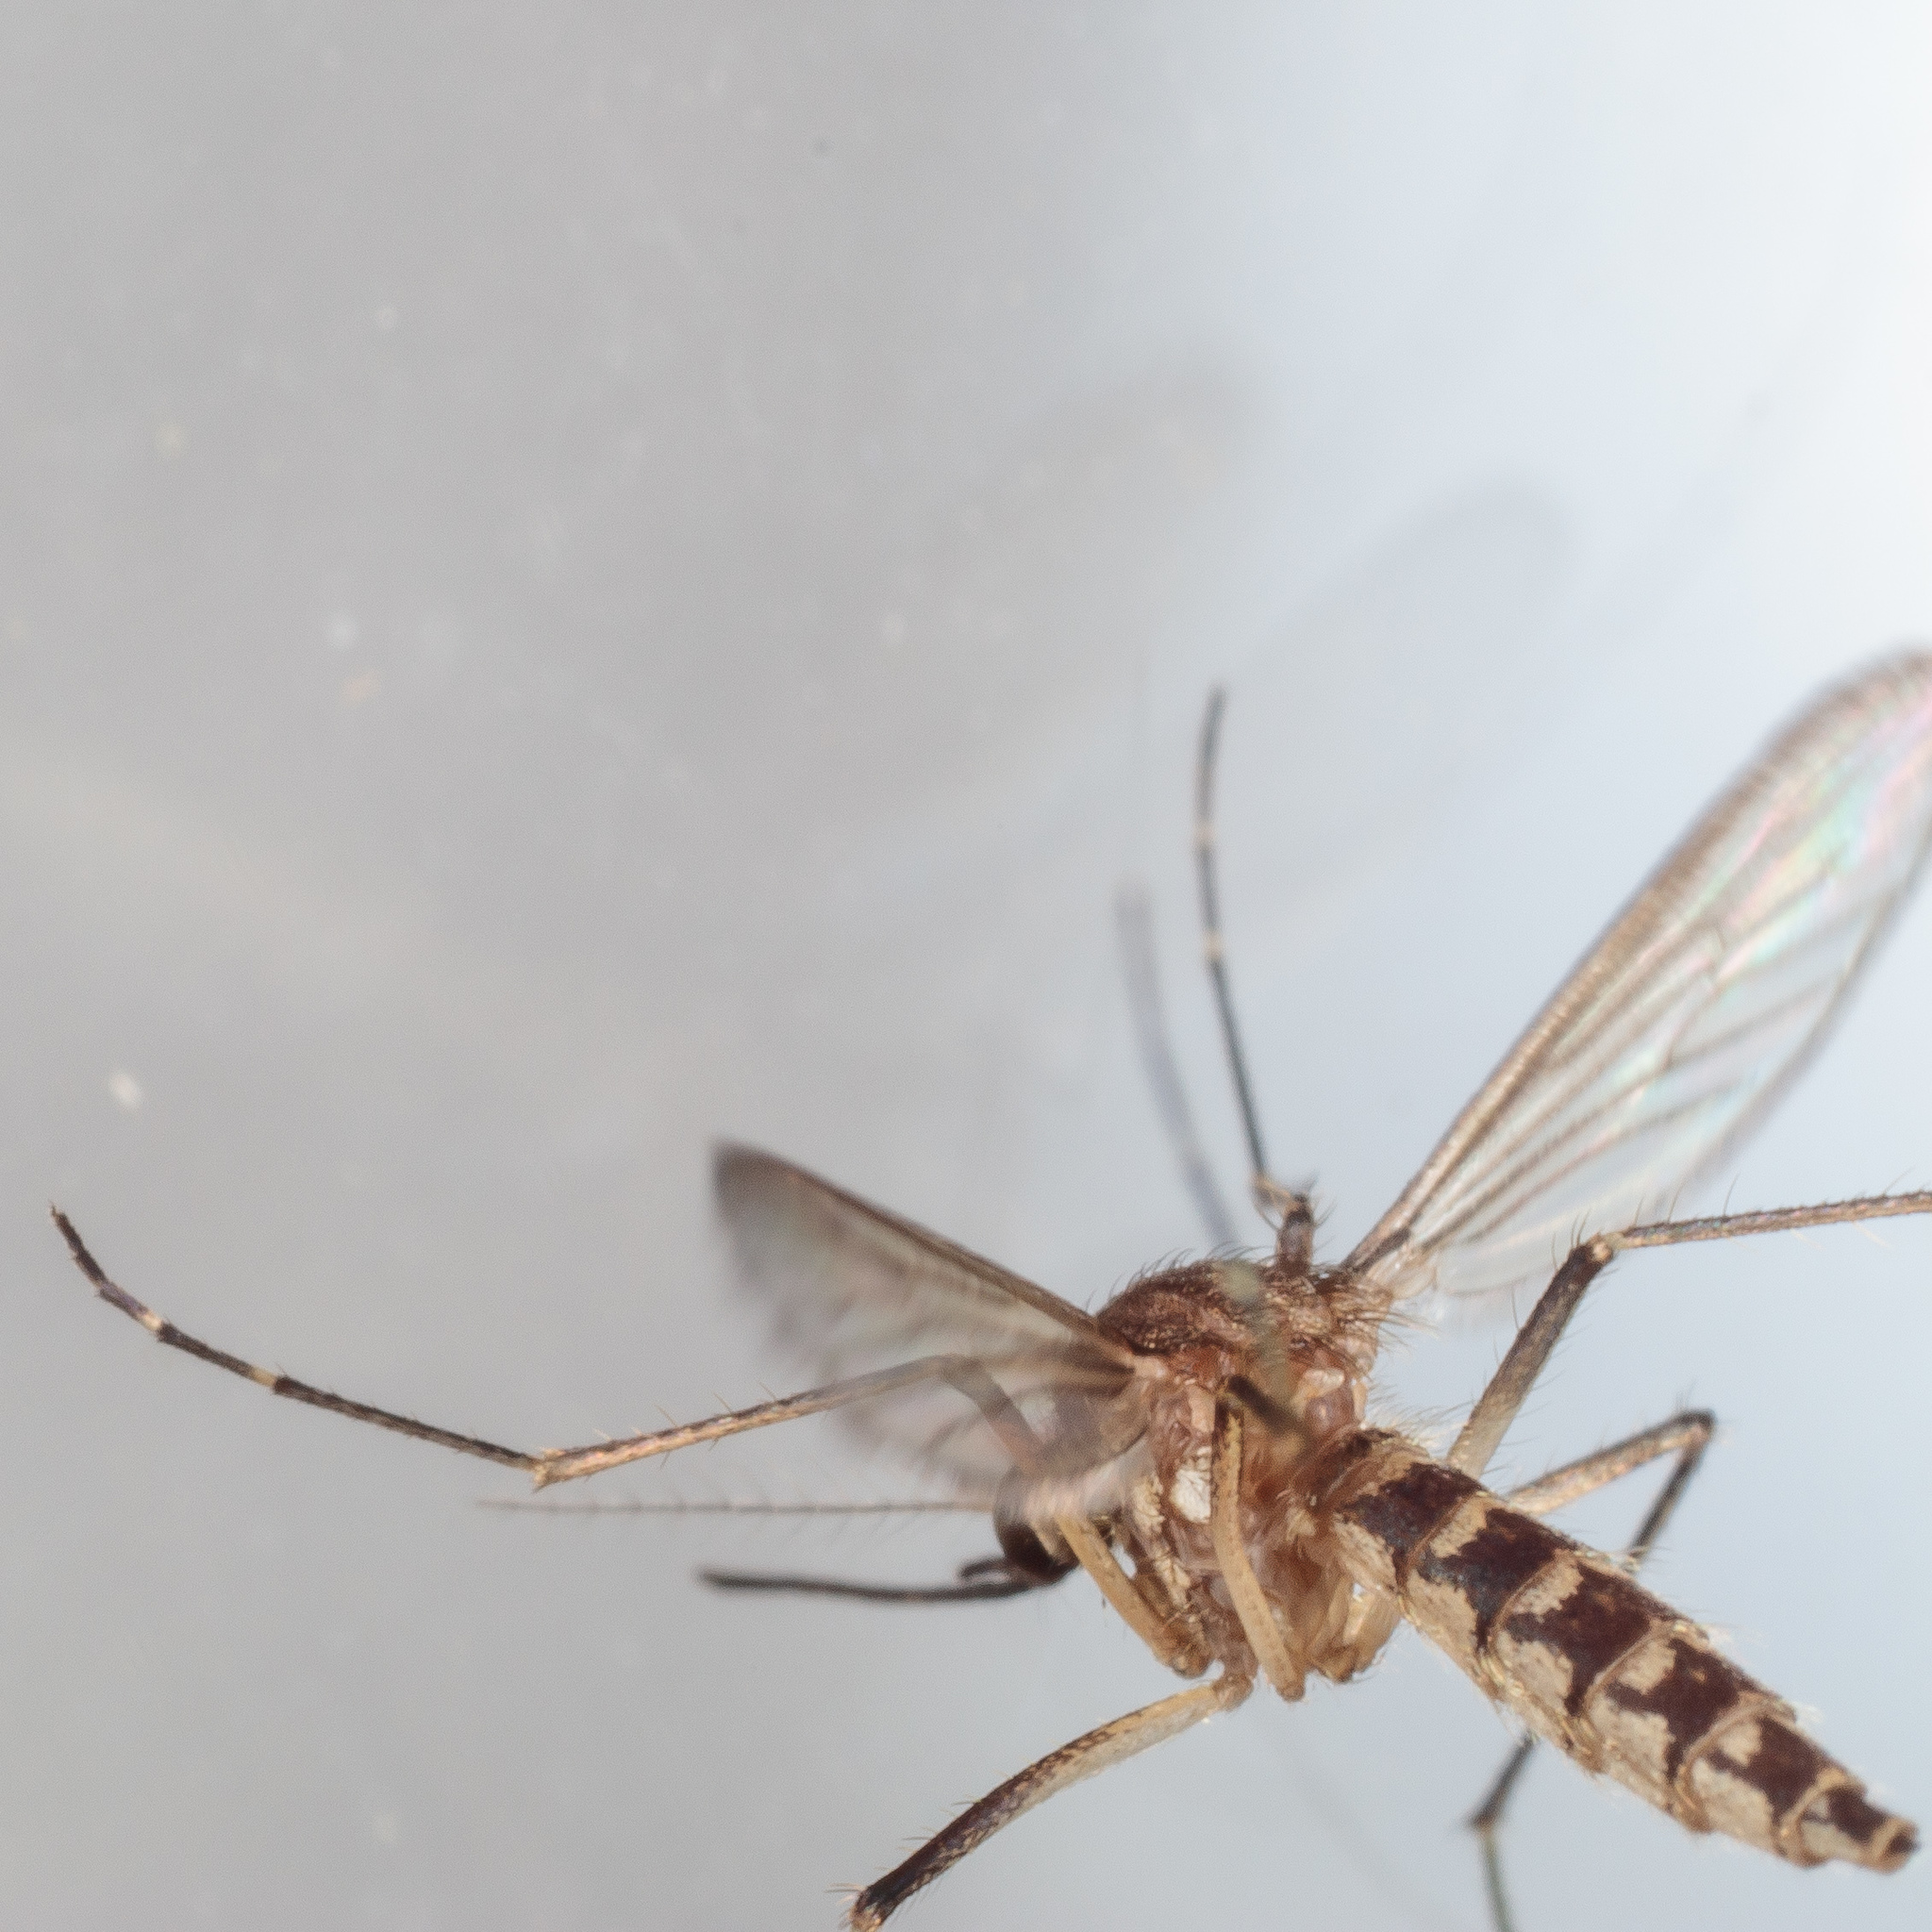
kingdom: Animalia
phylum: Arthropoda
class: Insecta
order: Diptera
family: Culicidae
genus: Aedes
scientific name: Aedes vexans
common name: Inland floodwater mosquito
